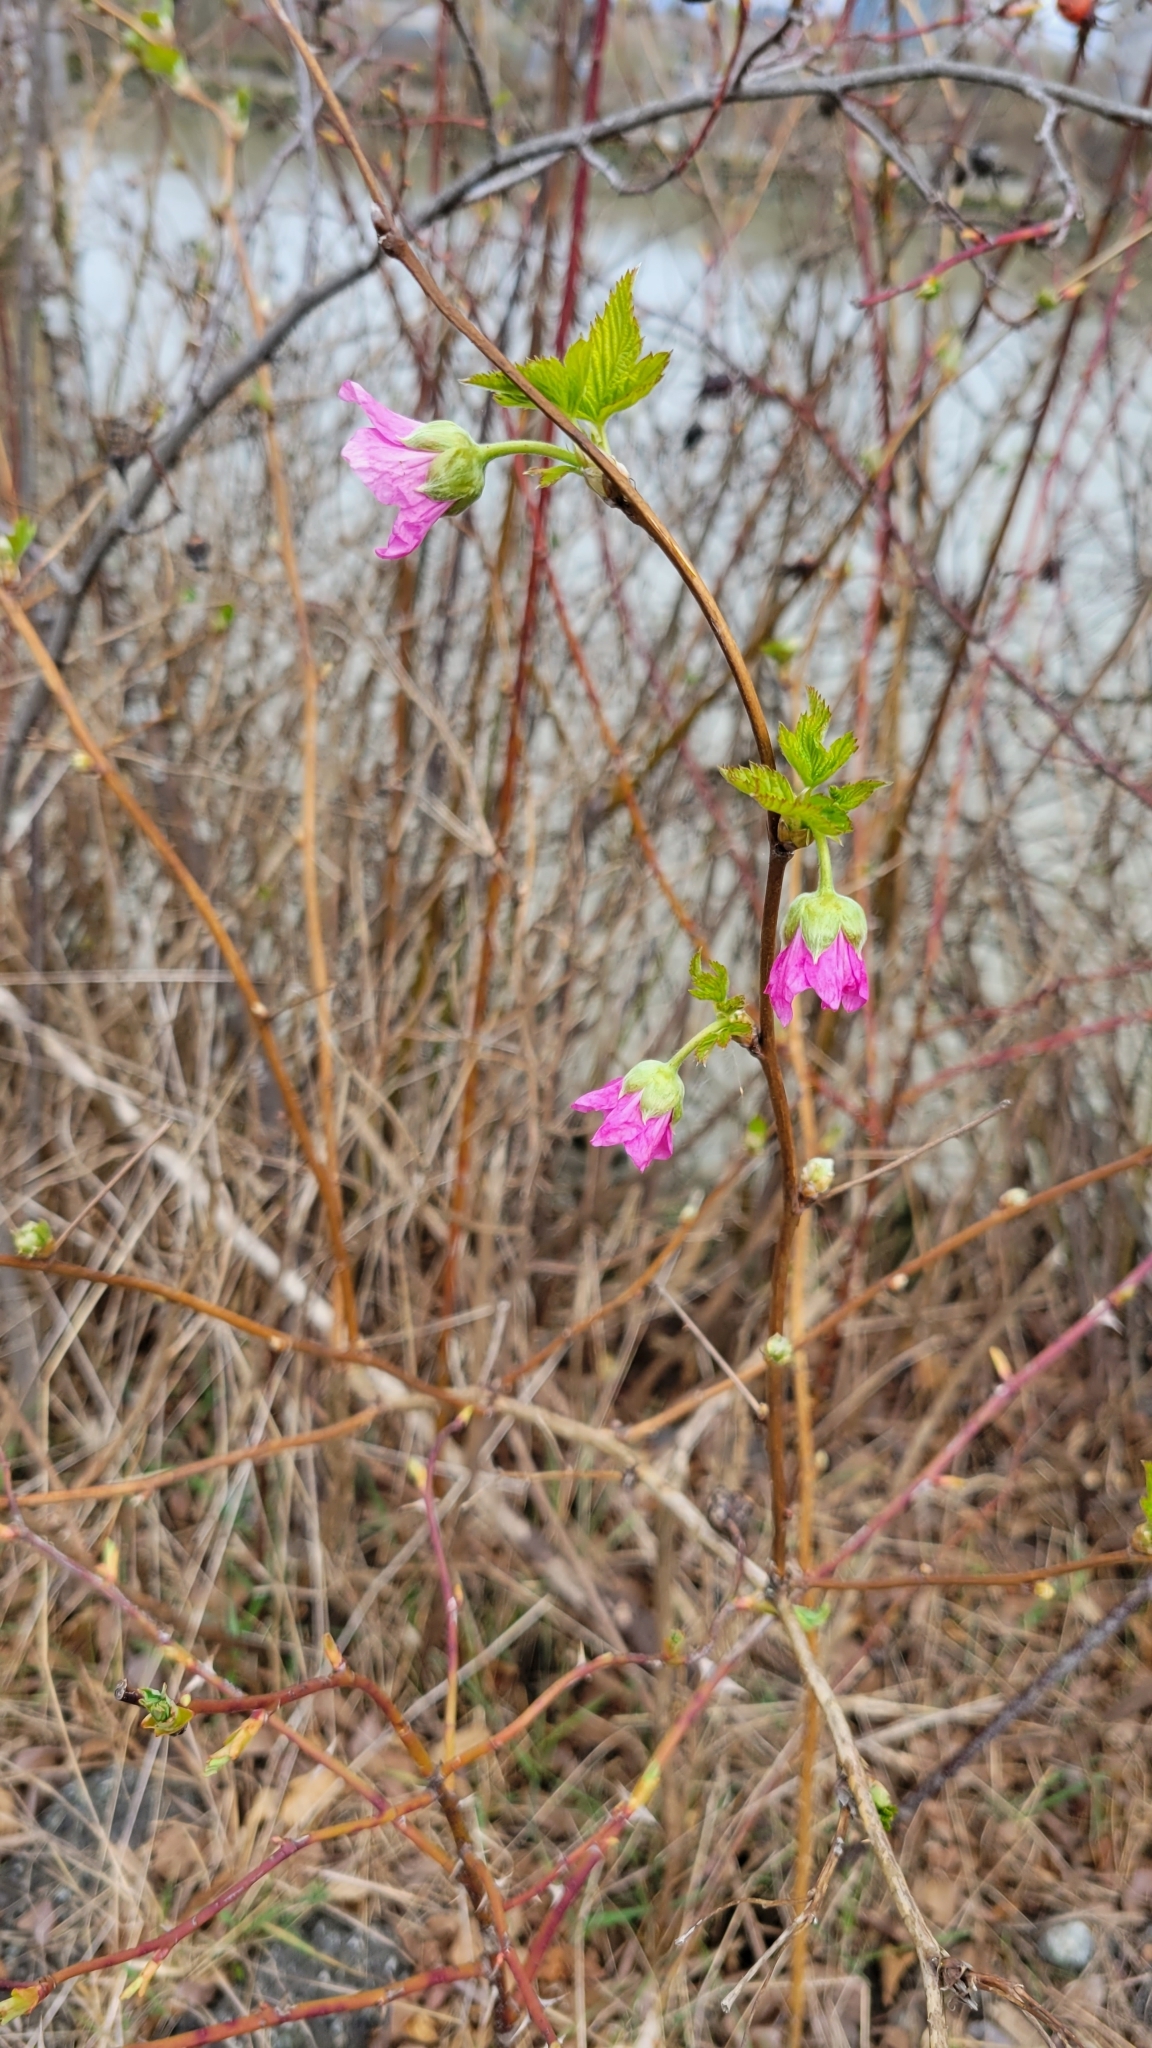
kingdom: Plantae
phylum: Tracheophyta
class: Magnoliopsida
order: Rosales
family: Rosaceae
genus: Rubus
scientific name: Rubus spectabilis
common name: Salmonberry
